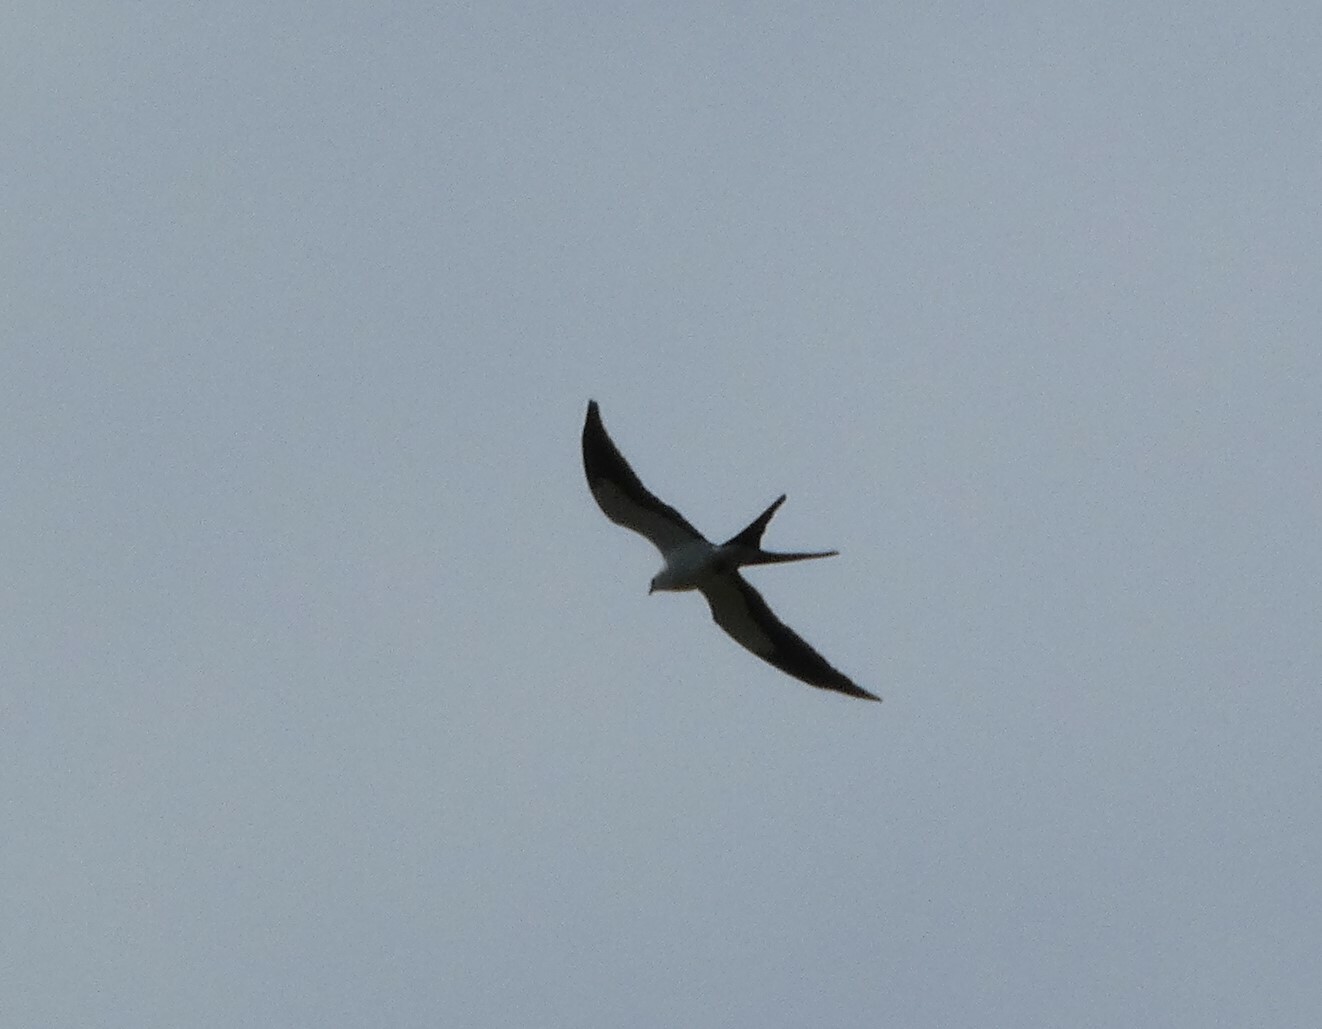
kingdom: Animalia
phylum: Chordata
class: Aves
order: Accipitriformes
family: Accipitridae
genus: Elanoides
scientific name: Elanoides forficatus
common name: Swallow-tailed kite
